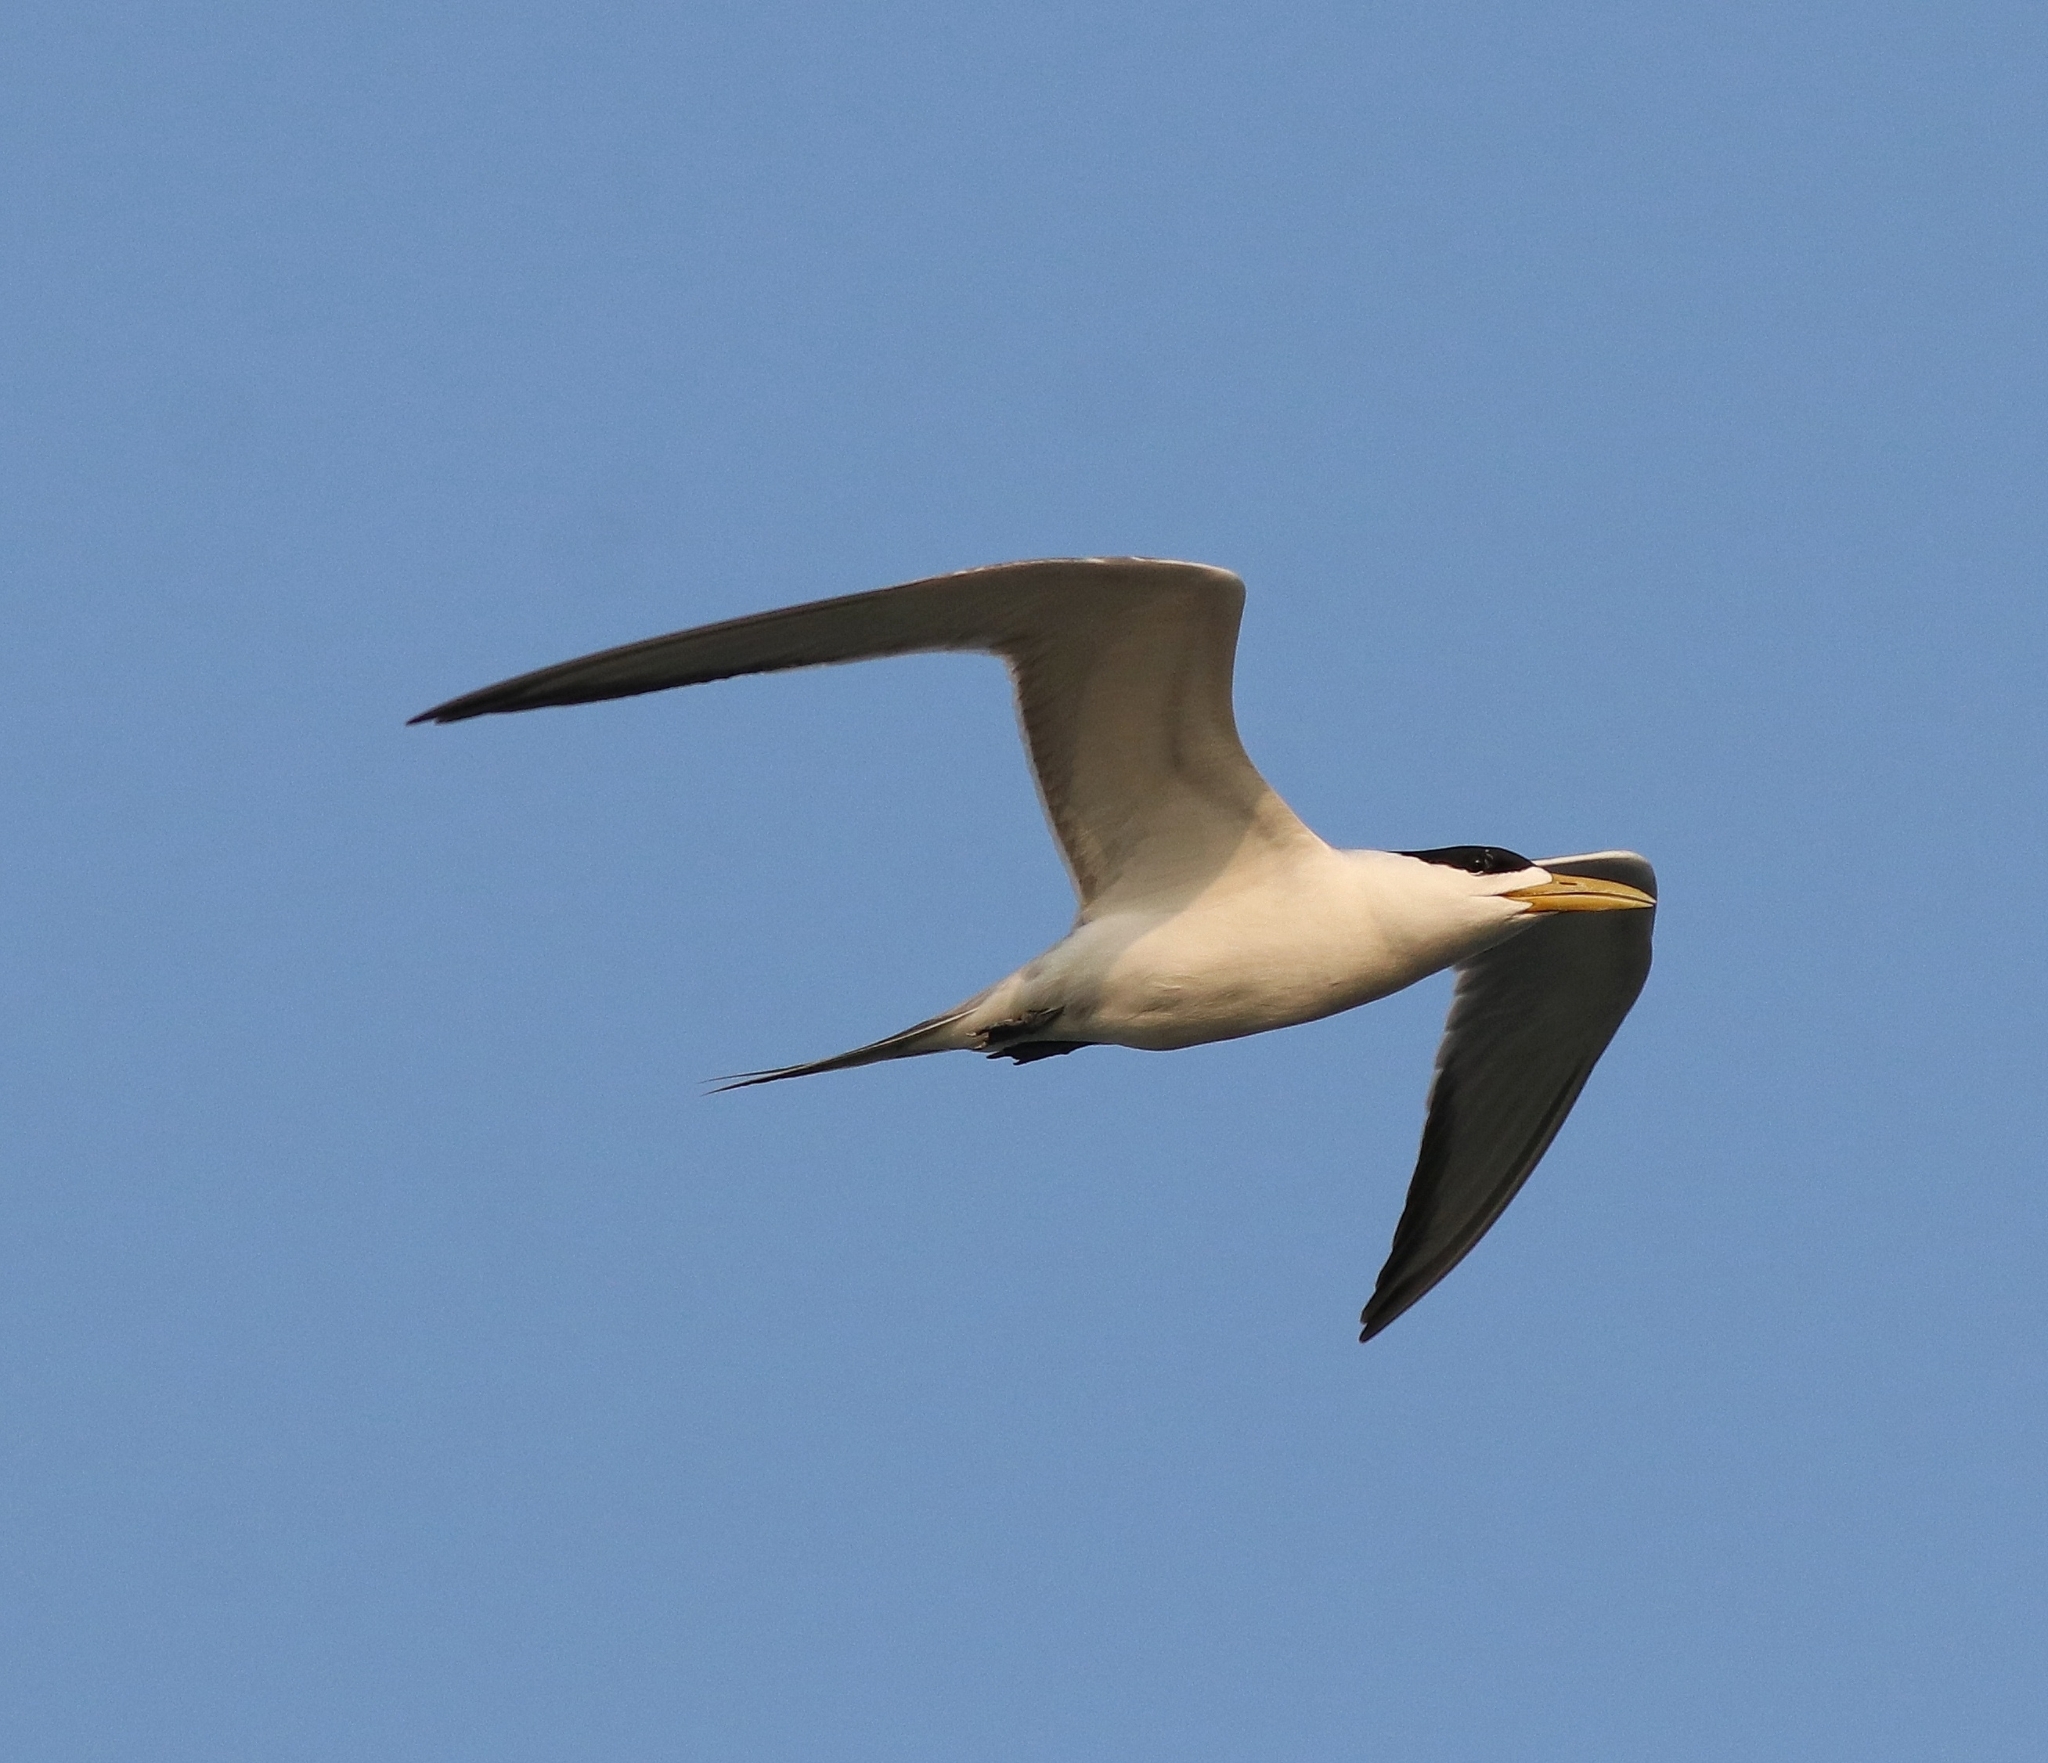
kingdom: Animalia
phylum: Chordata
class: Aves
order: Charadriiformes
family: Laridae
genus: Thalasseus
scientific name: Thalasseus bergii
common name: Greater crested tern
